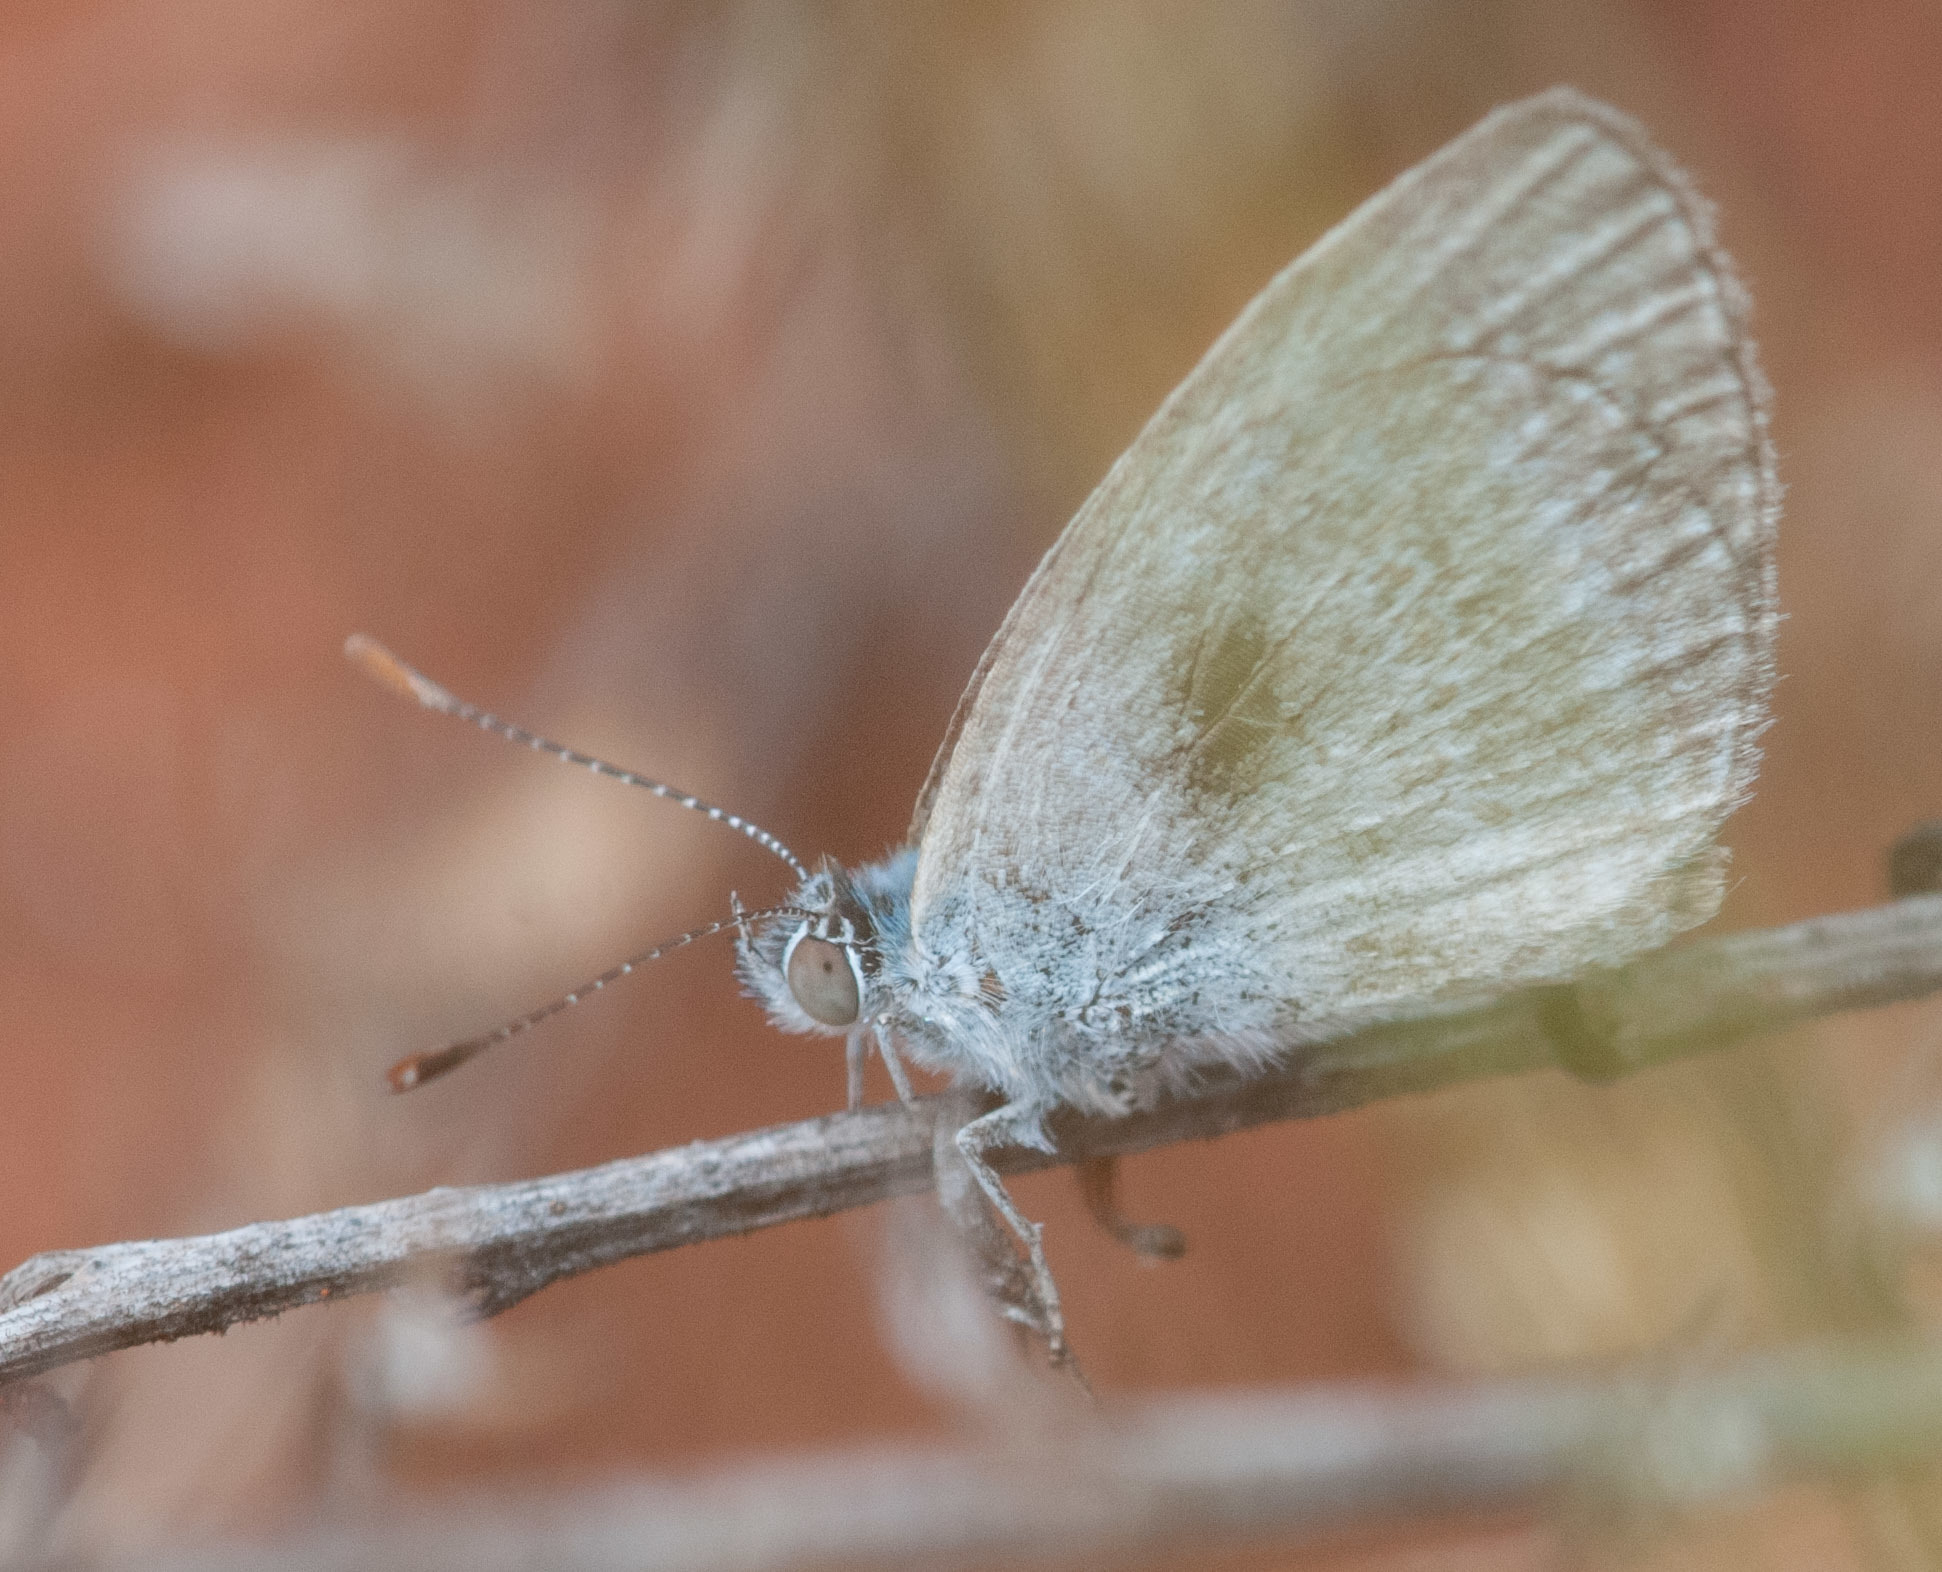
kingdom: Animalia
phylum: Arthropoda
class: Insecta
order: Lepidoptera
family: Lycaenidae
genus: Zizina
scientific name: Zizina labradus
